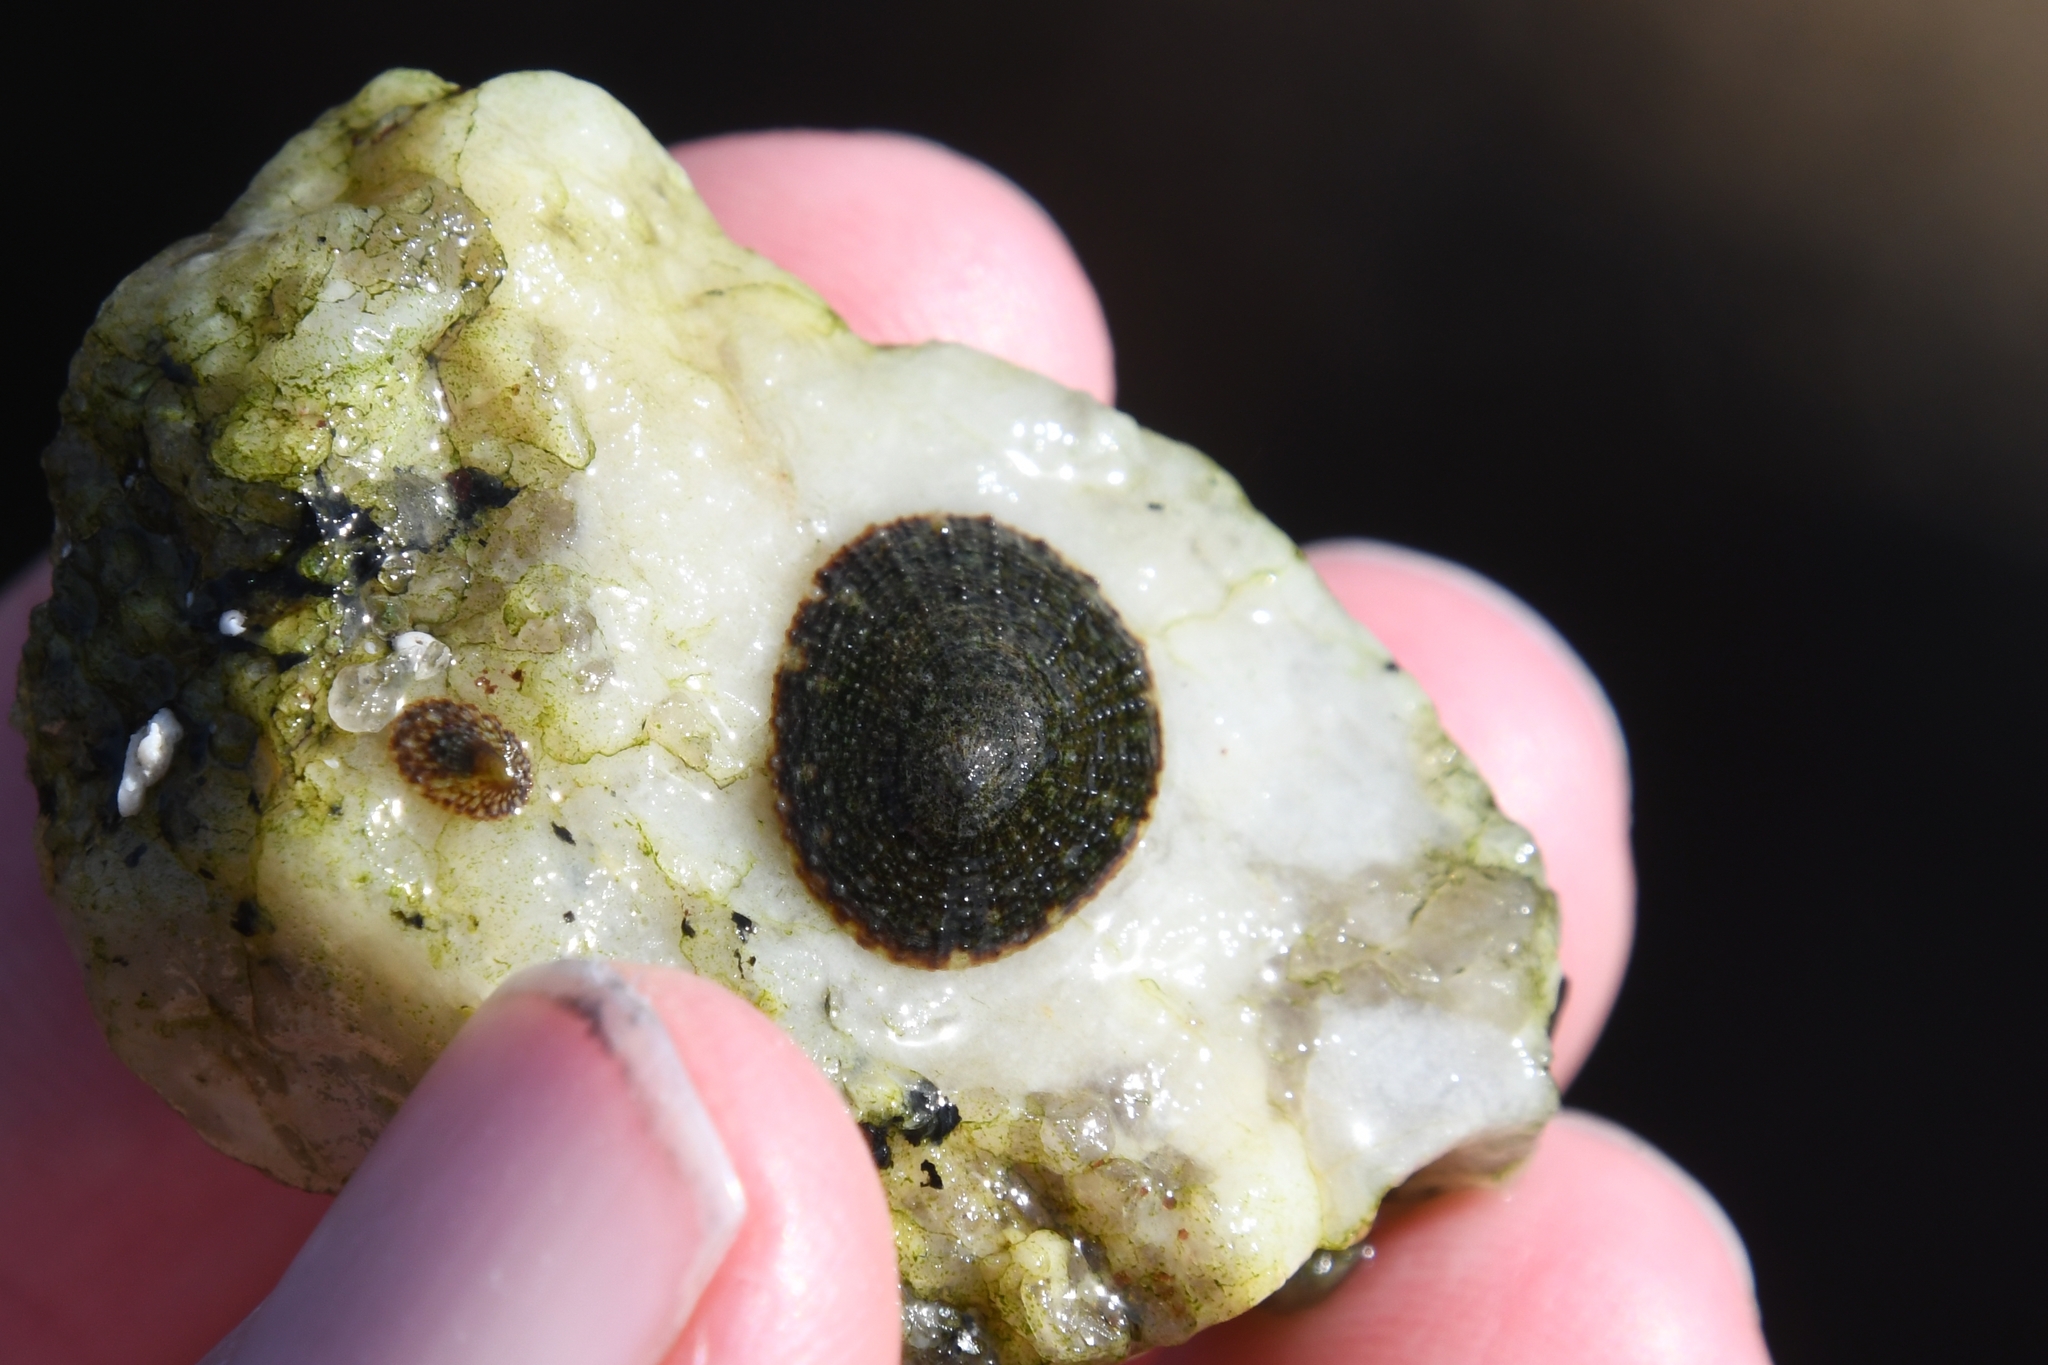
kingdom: Animalia
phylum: Mollusca
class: Gastropoda
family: Lottiidae
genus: Lottia
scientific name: Lottia limatula
